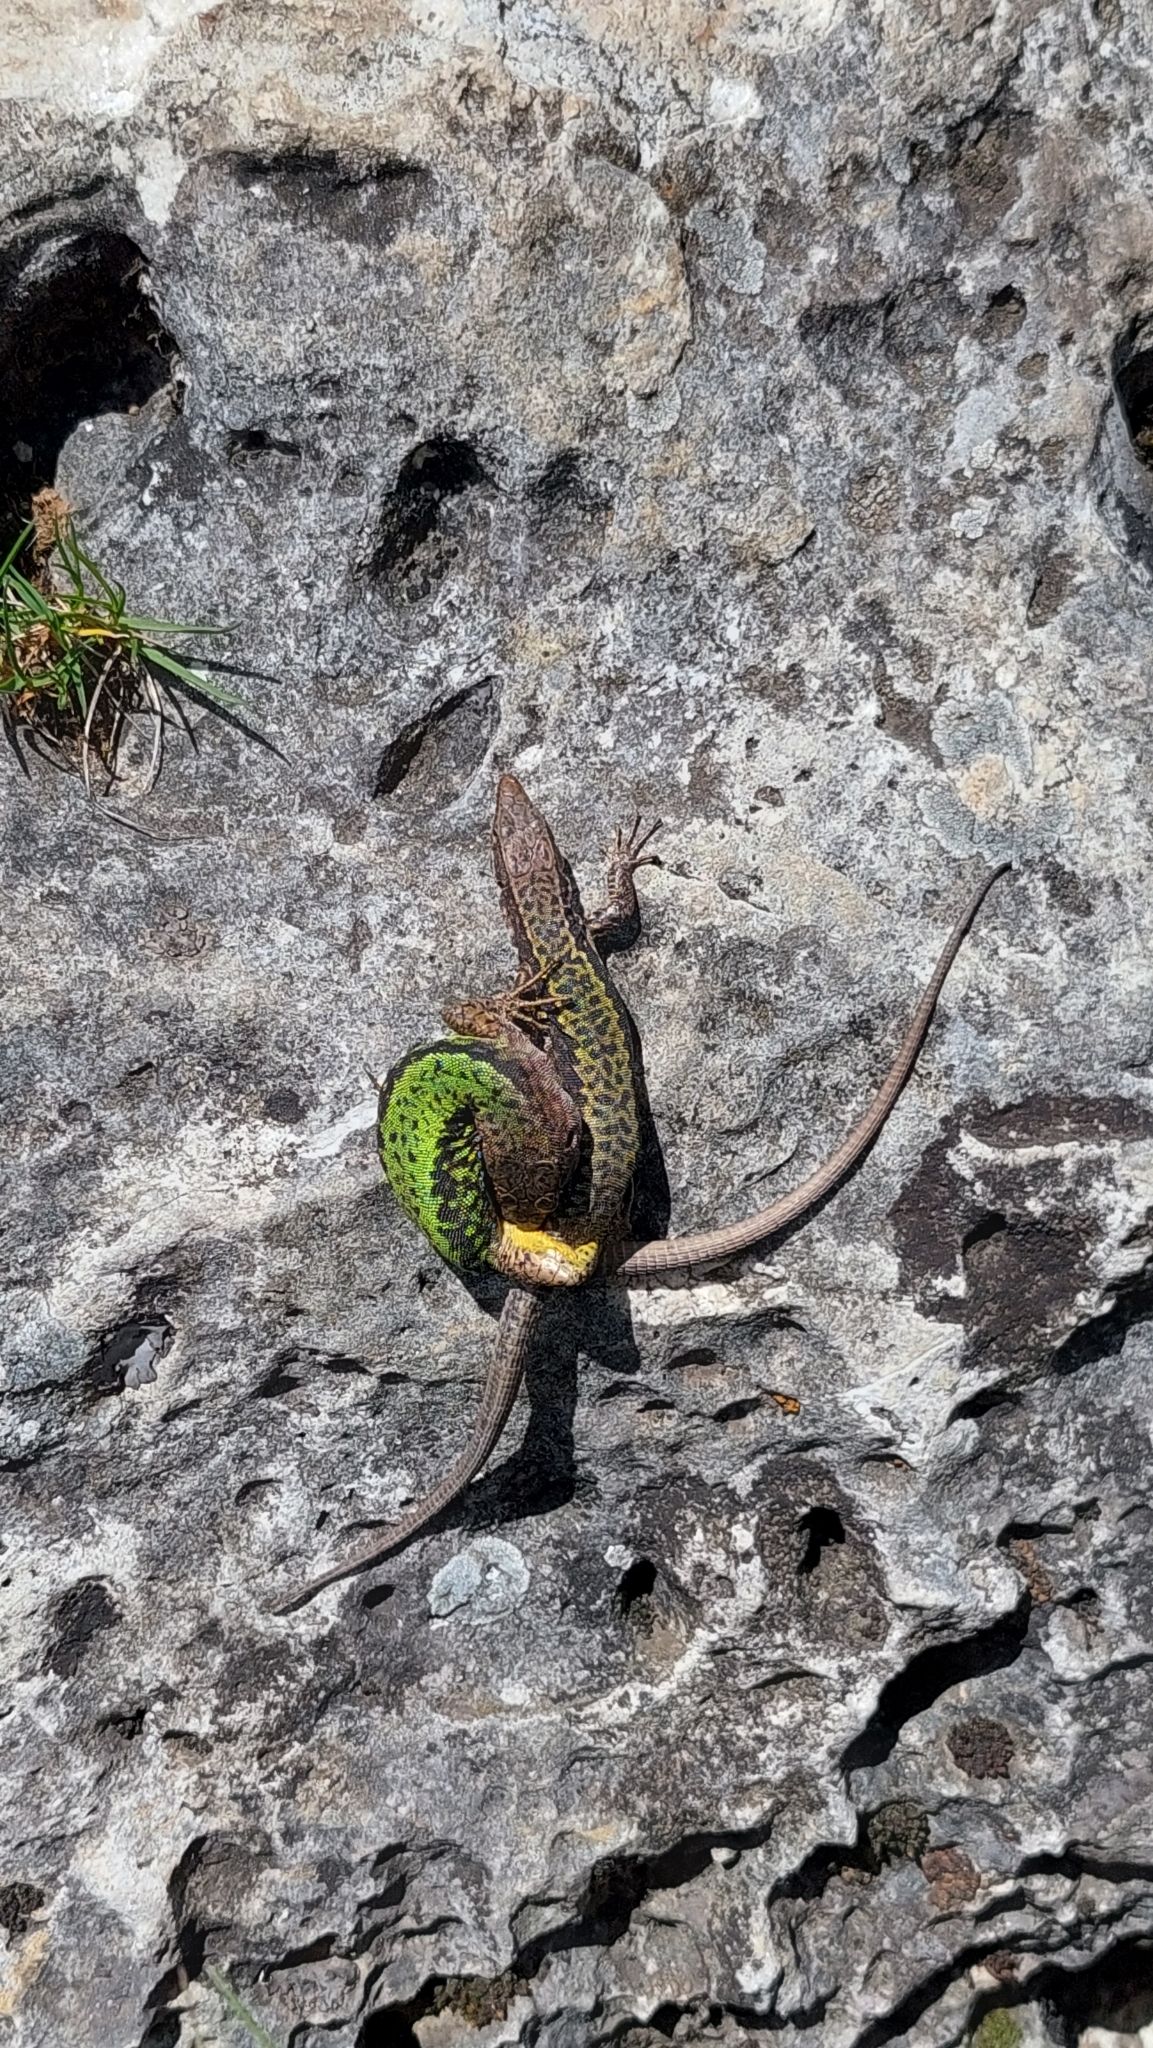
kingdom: Animalia
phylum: Chordata
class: Squamata
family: Lacertidae
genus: Darevskia
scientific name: Darevskia brauneri
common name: Brauner's rock lizard
